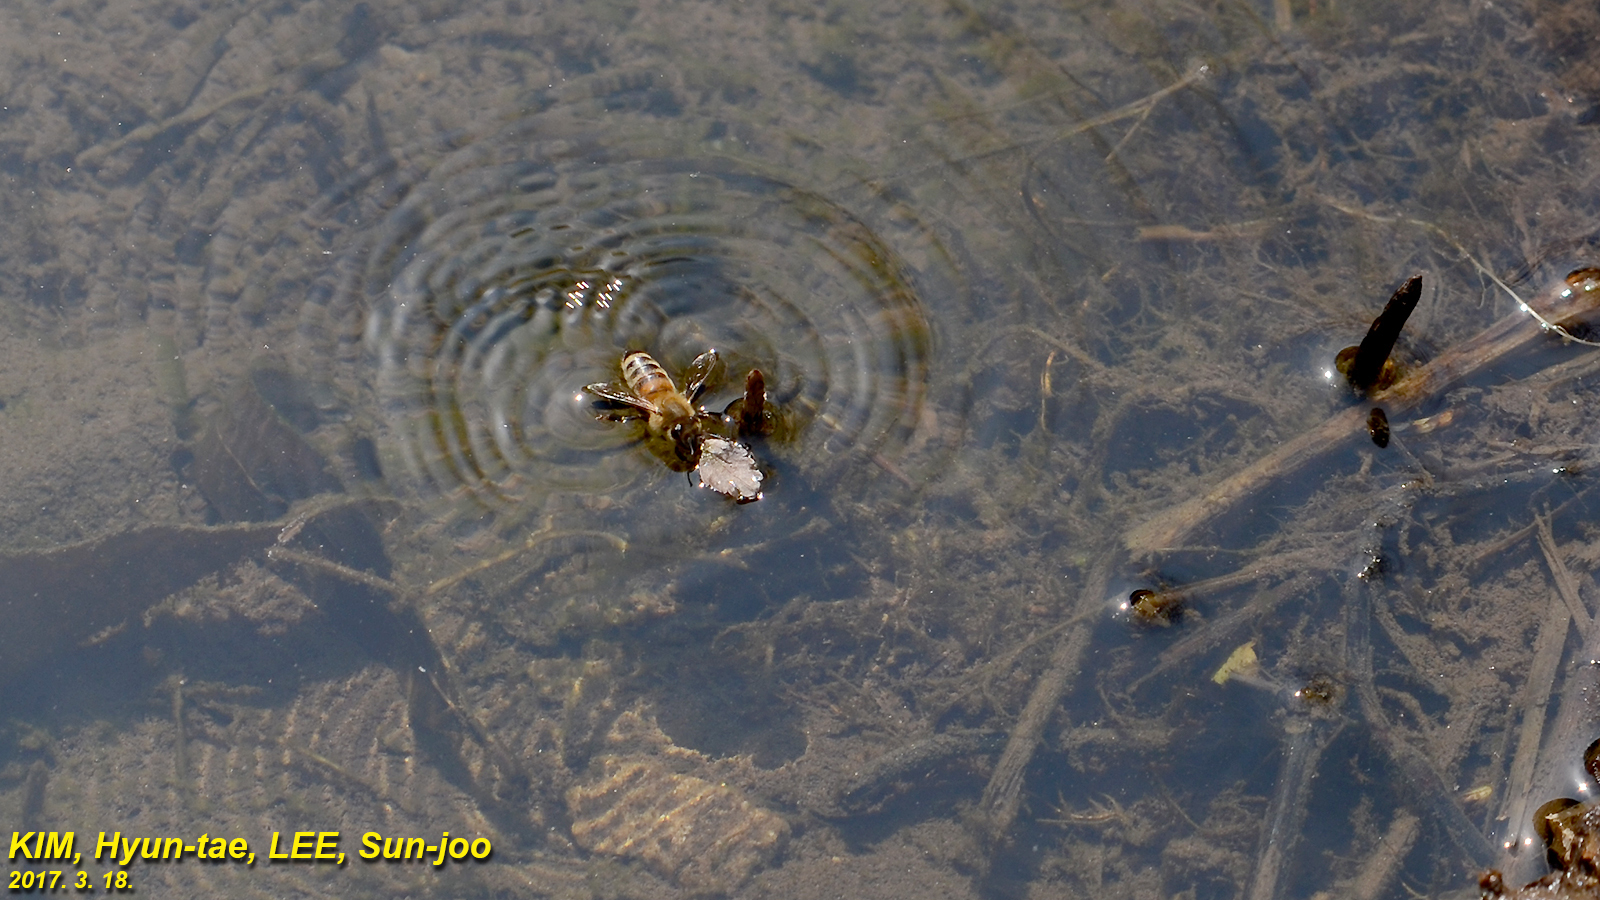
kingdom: Animalia
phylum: Arthropoda
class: Insecta
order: Hymenoptera
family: Apidae
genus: Apis
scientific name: Apis mellifera
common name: Honey bee
